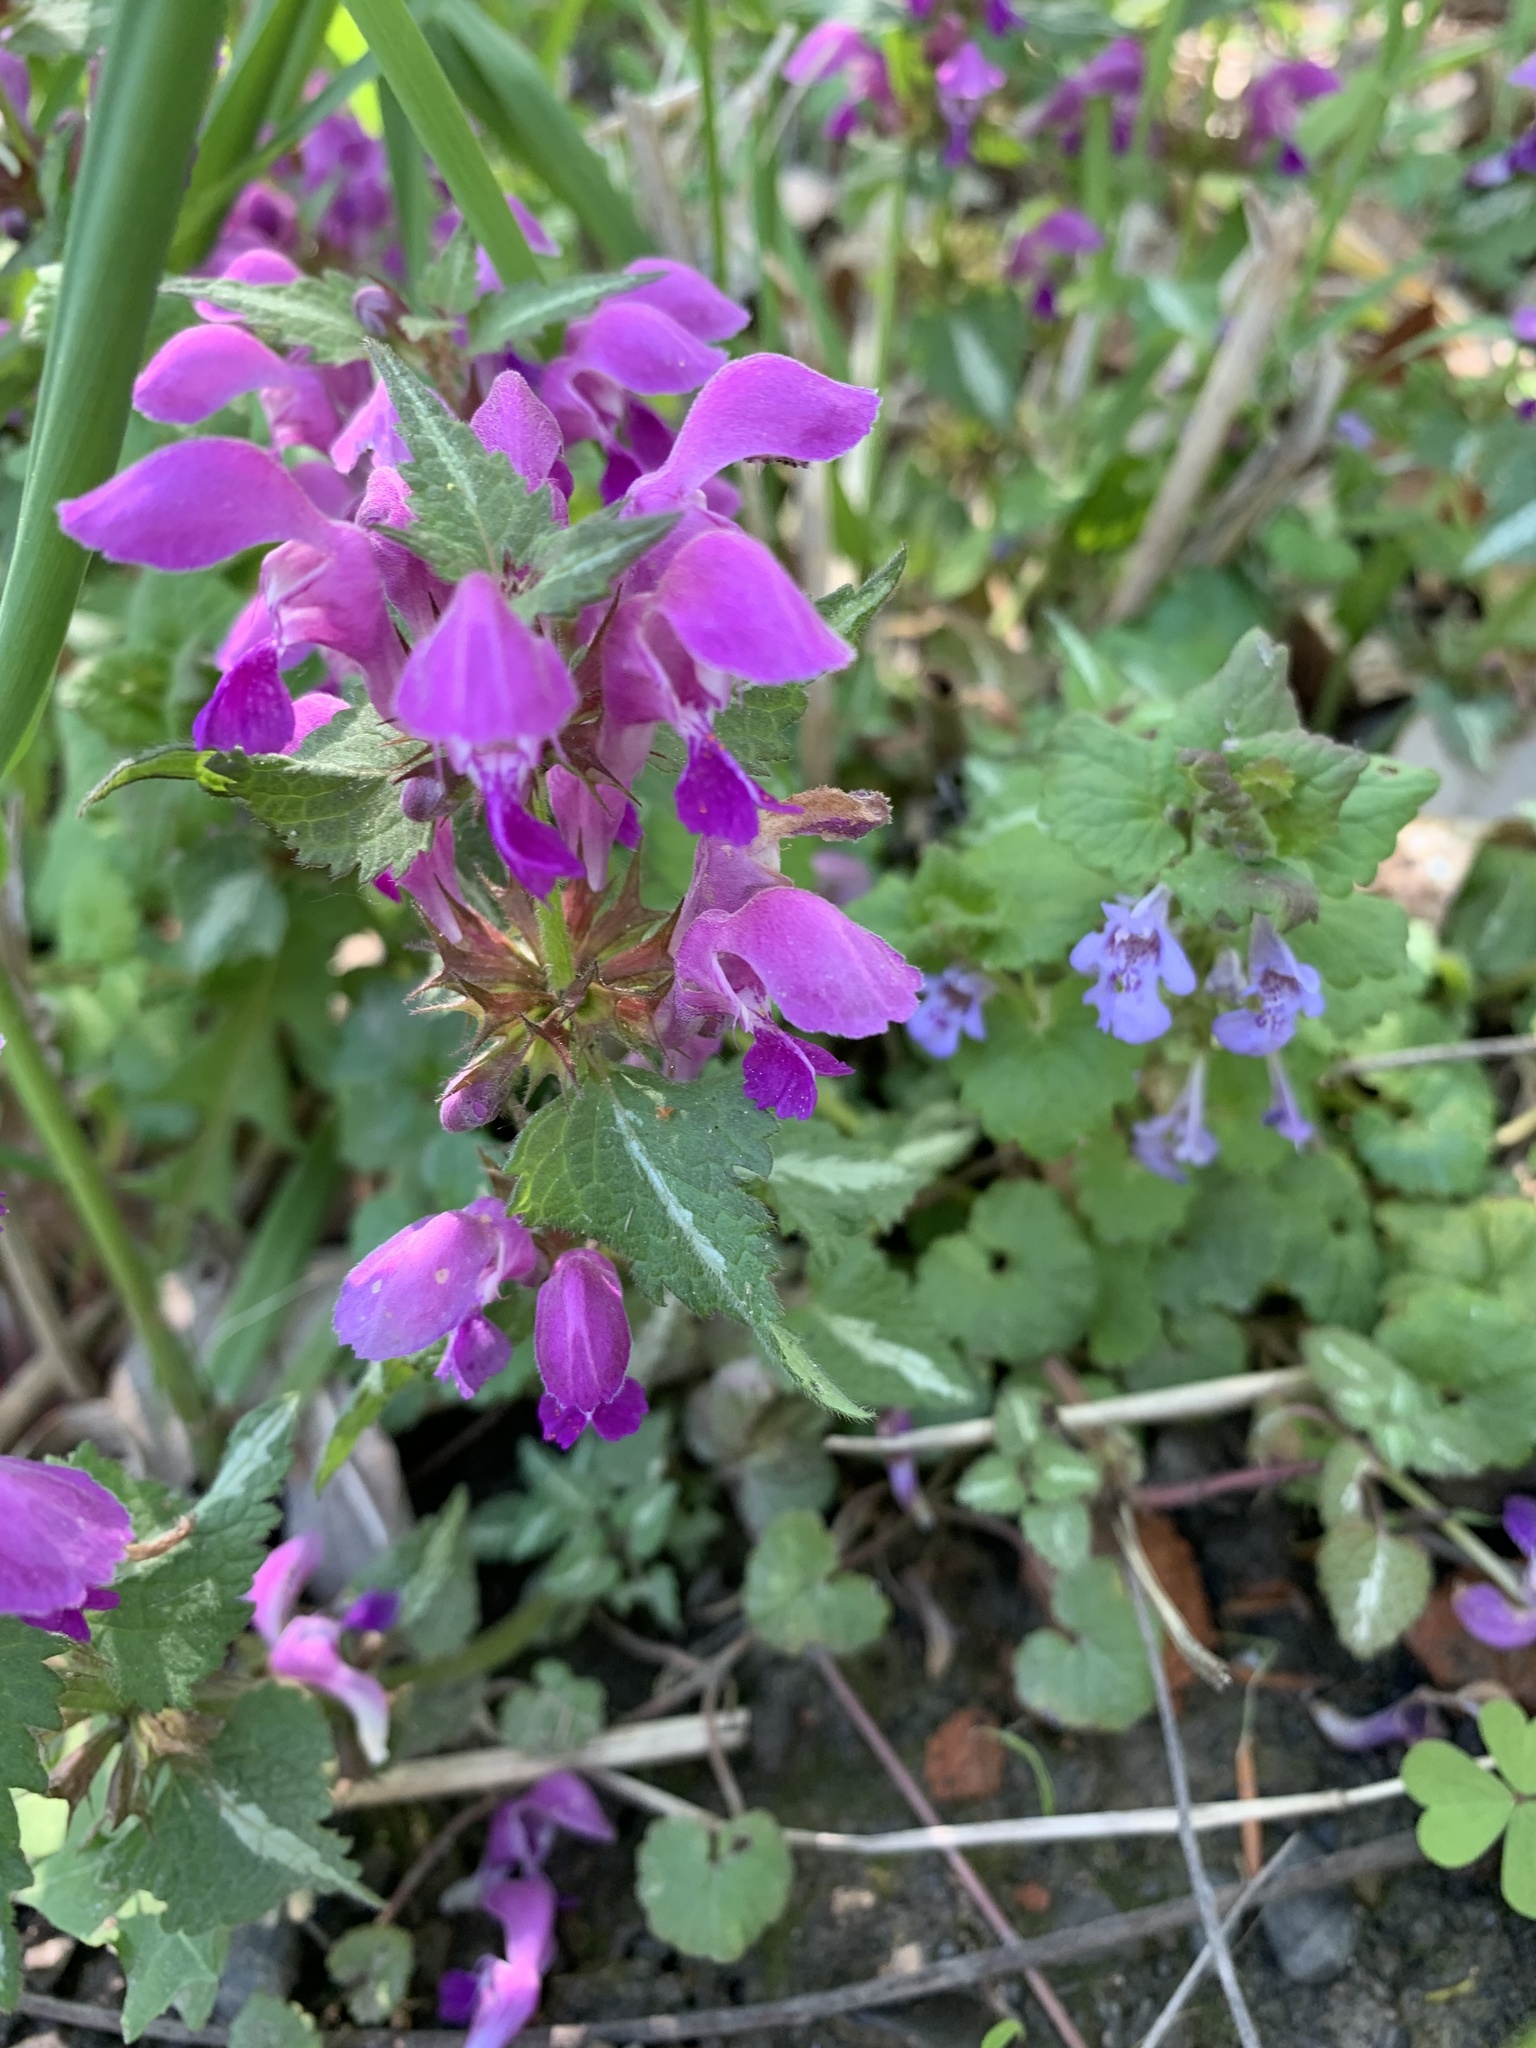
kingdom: Plantae
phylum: Tracheophyta
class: Magnoliopsida
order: Lamiales
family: Lamiaceae
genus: Lamium
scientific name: Lamium maculatum
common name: Spotted dead-nettle
